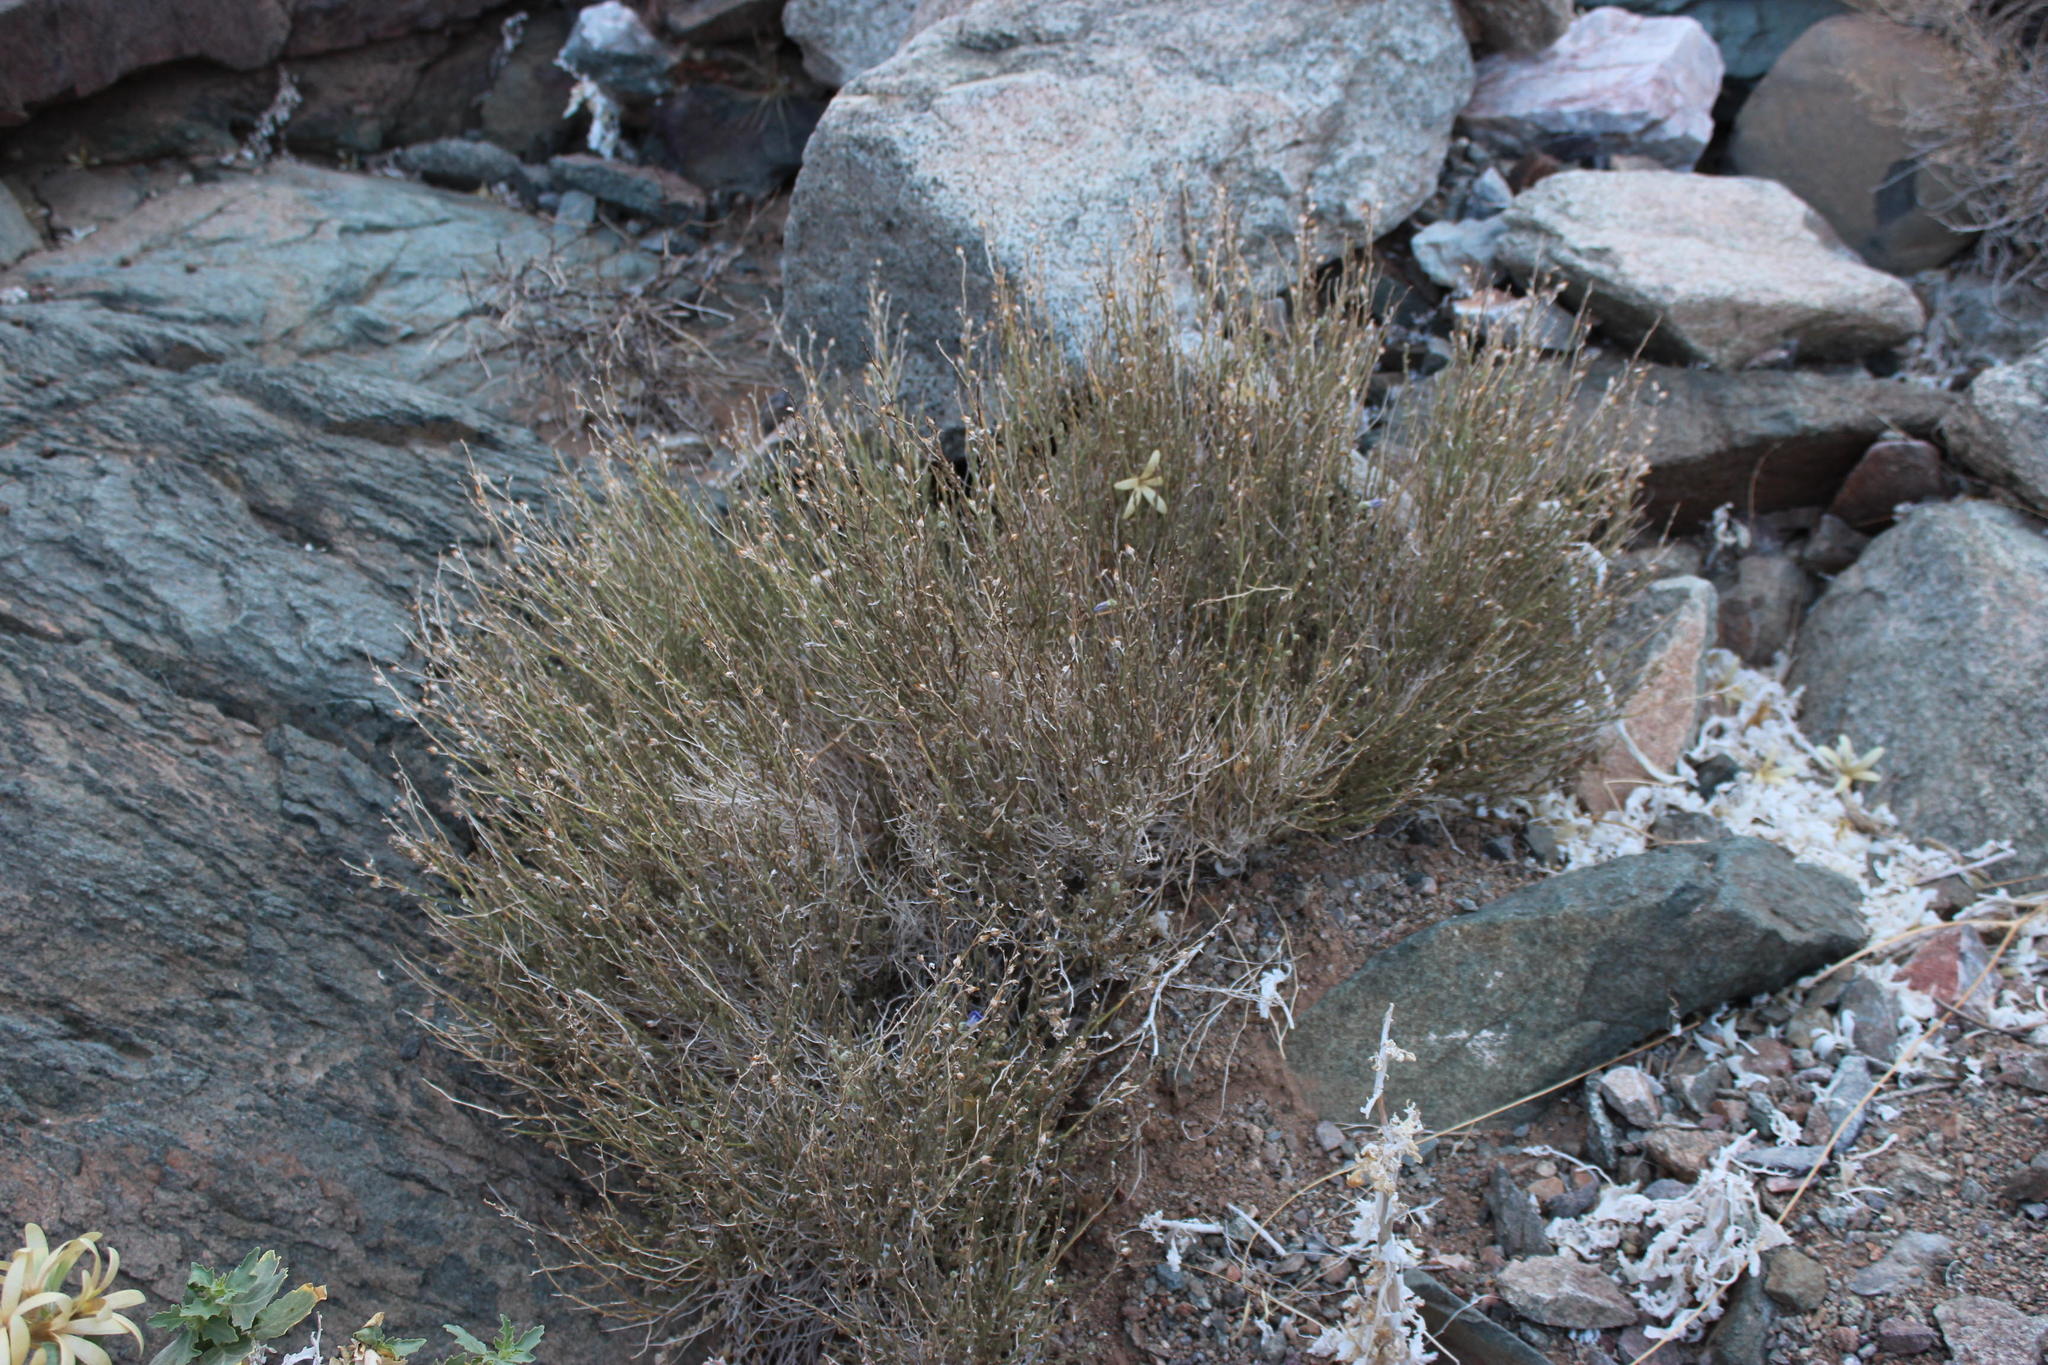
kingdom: Plantae
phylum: Tracheophyta
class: Magnoliopsida
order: Lamiales
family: Scrophulariaceae
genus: Anticharis
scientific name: Anticharis scoparia
